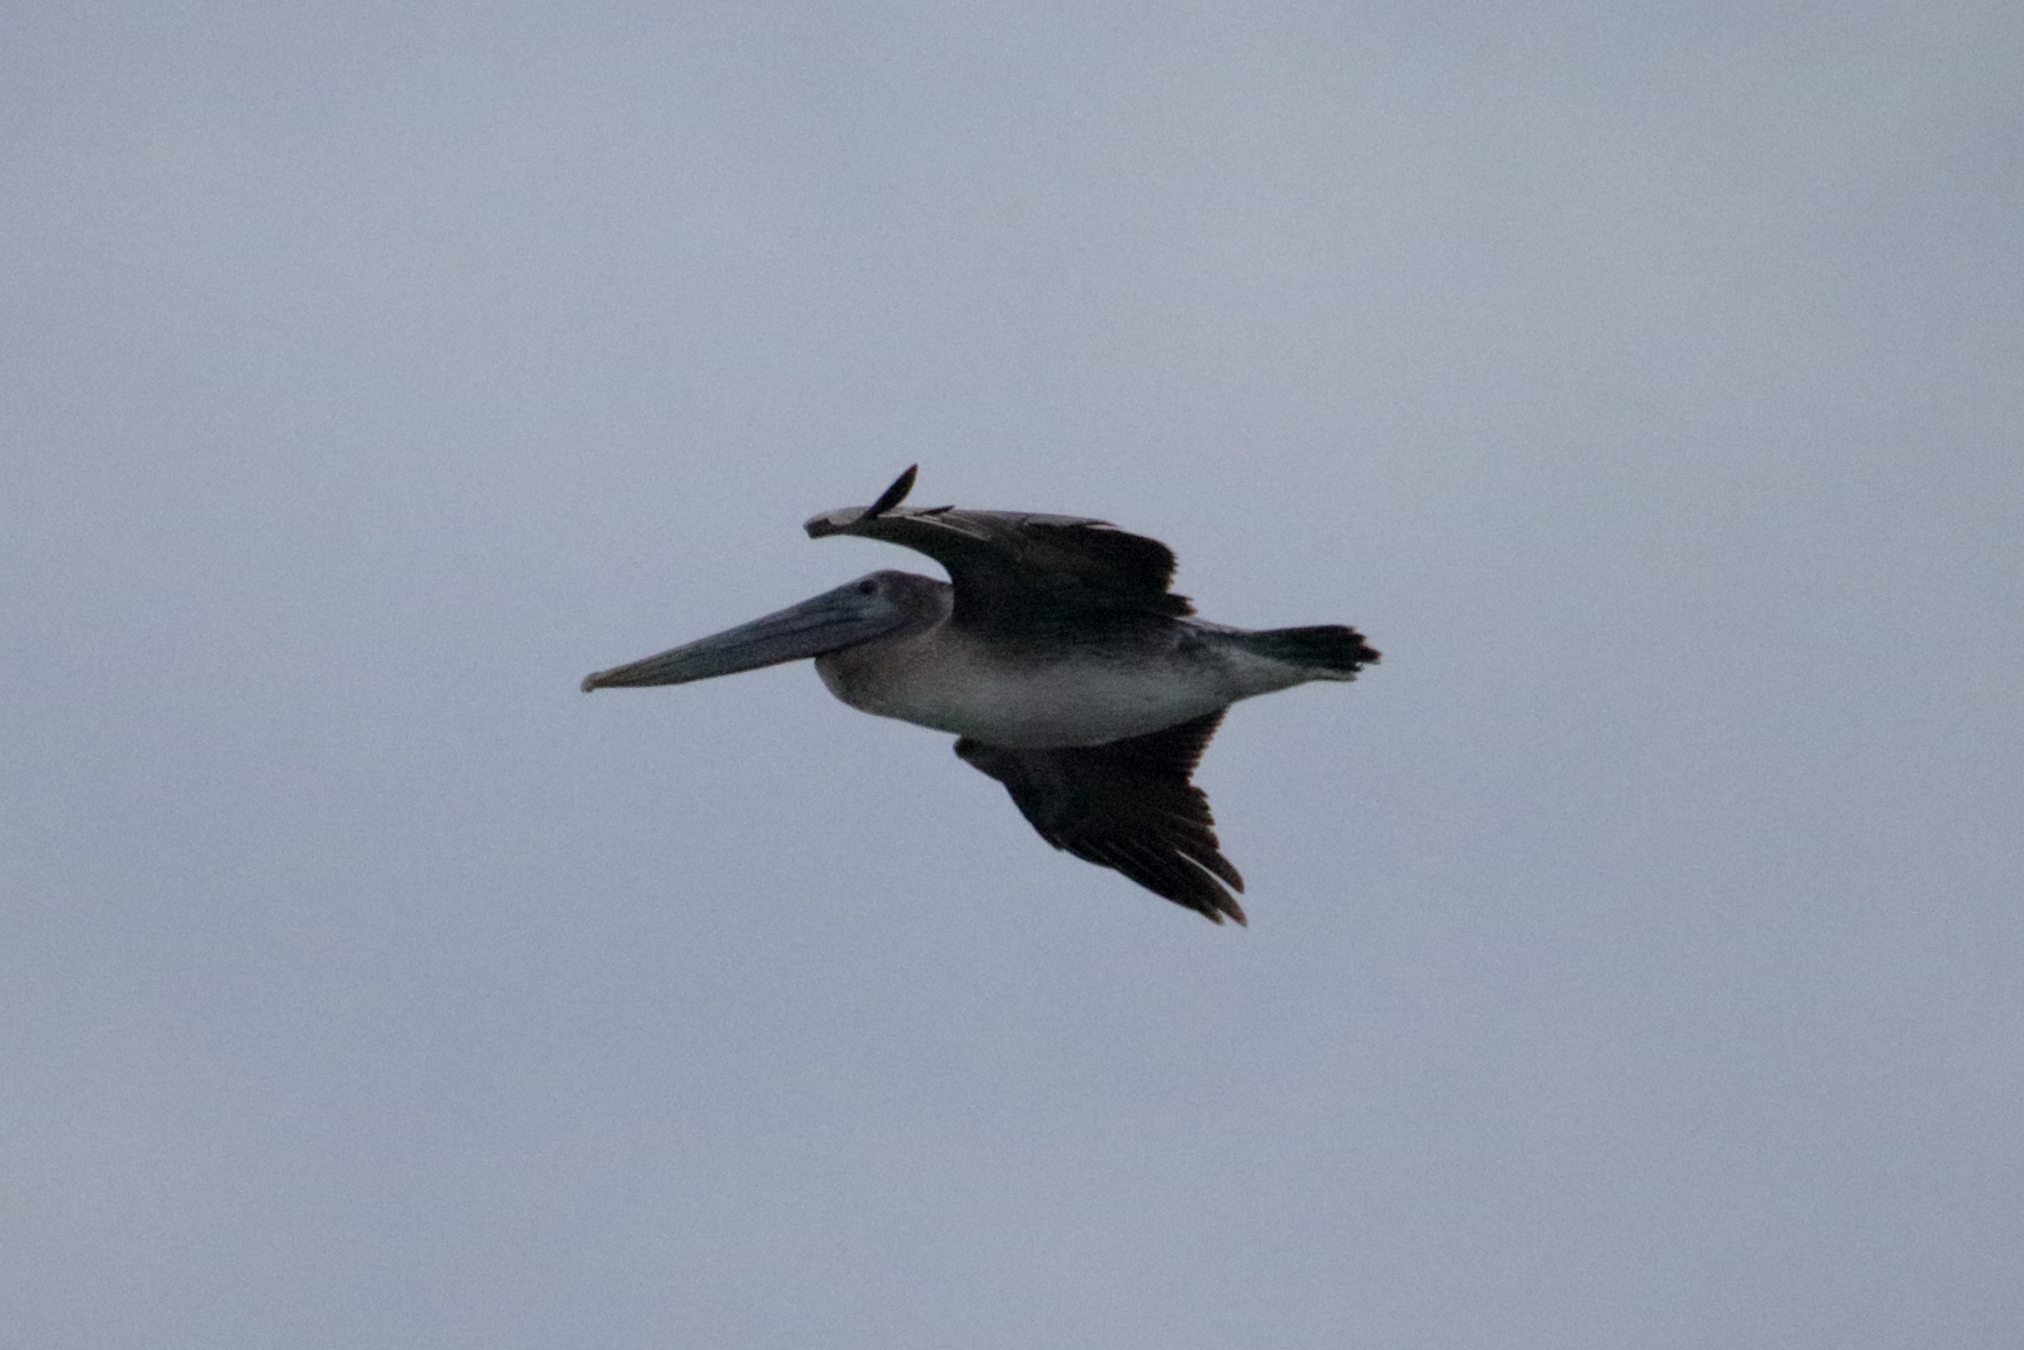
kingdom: Animalia
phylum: Chordata
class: Aves
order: Pelecaniformes
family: Pelecanidae
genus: Pelecanus
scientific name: Pelecanus occidentalis
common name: Brown pelican
